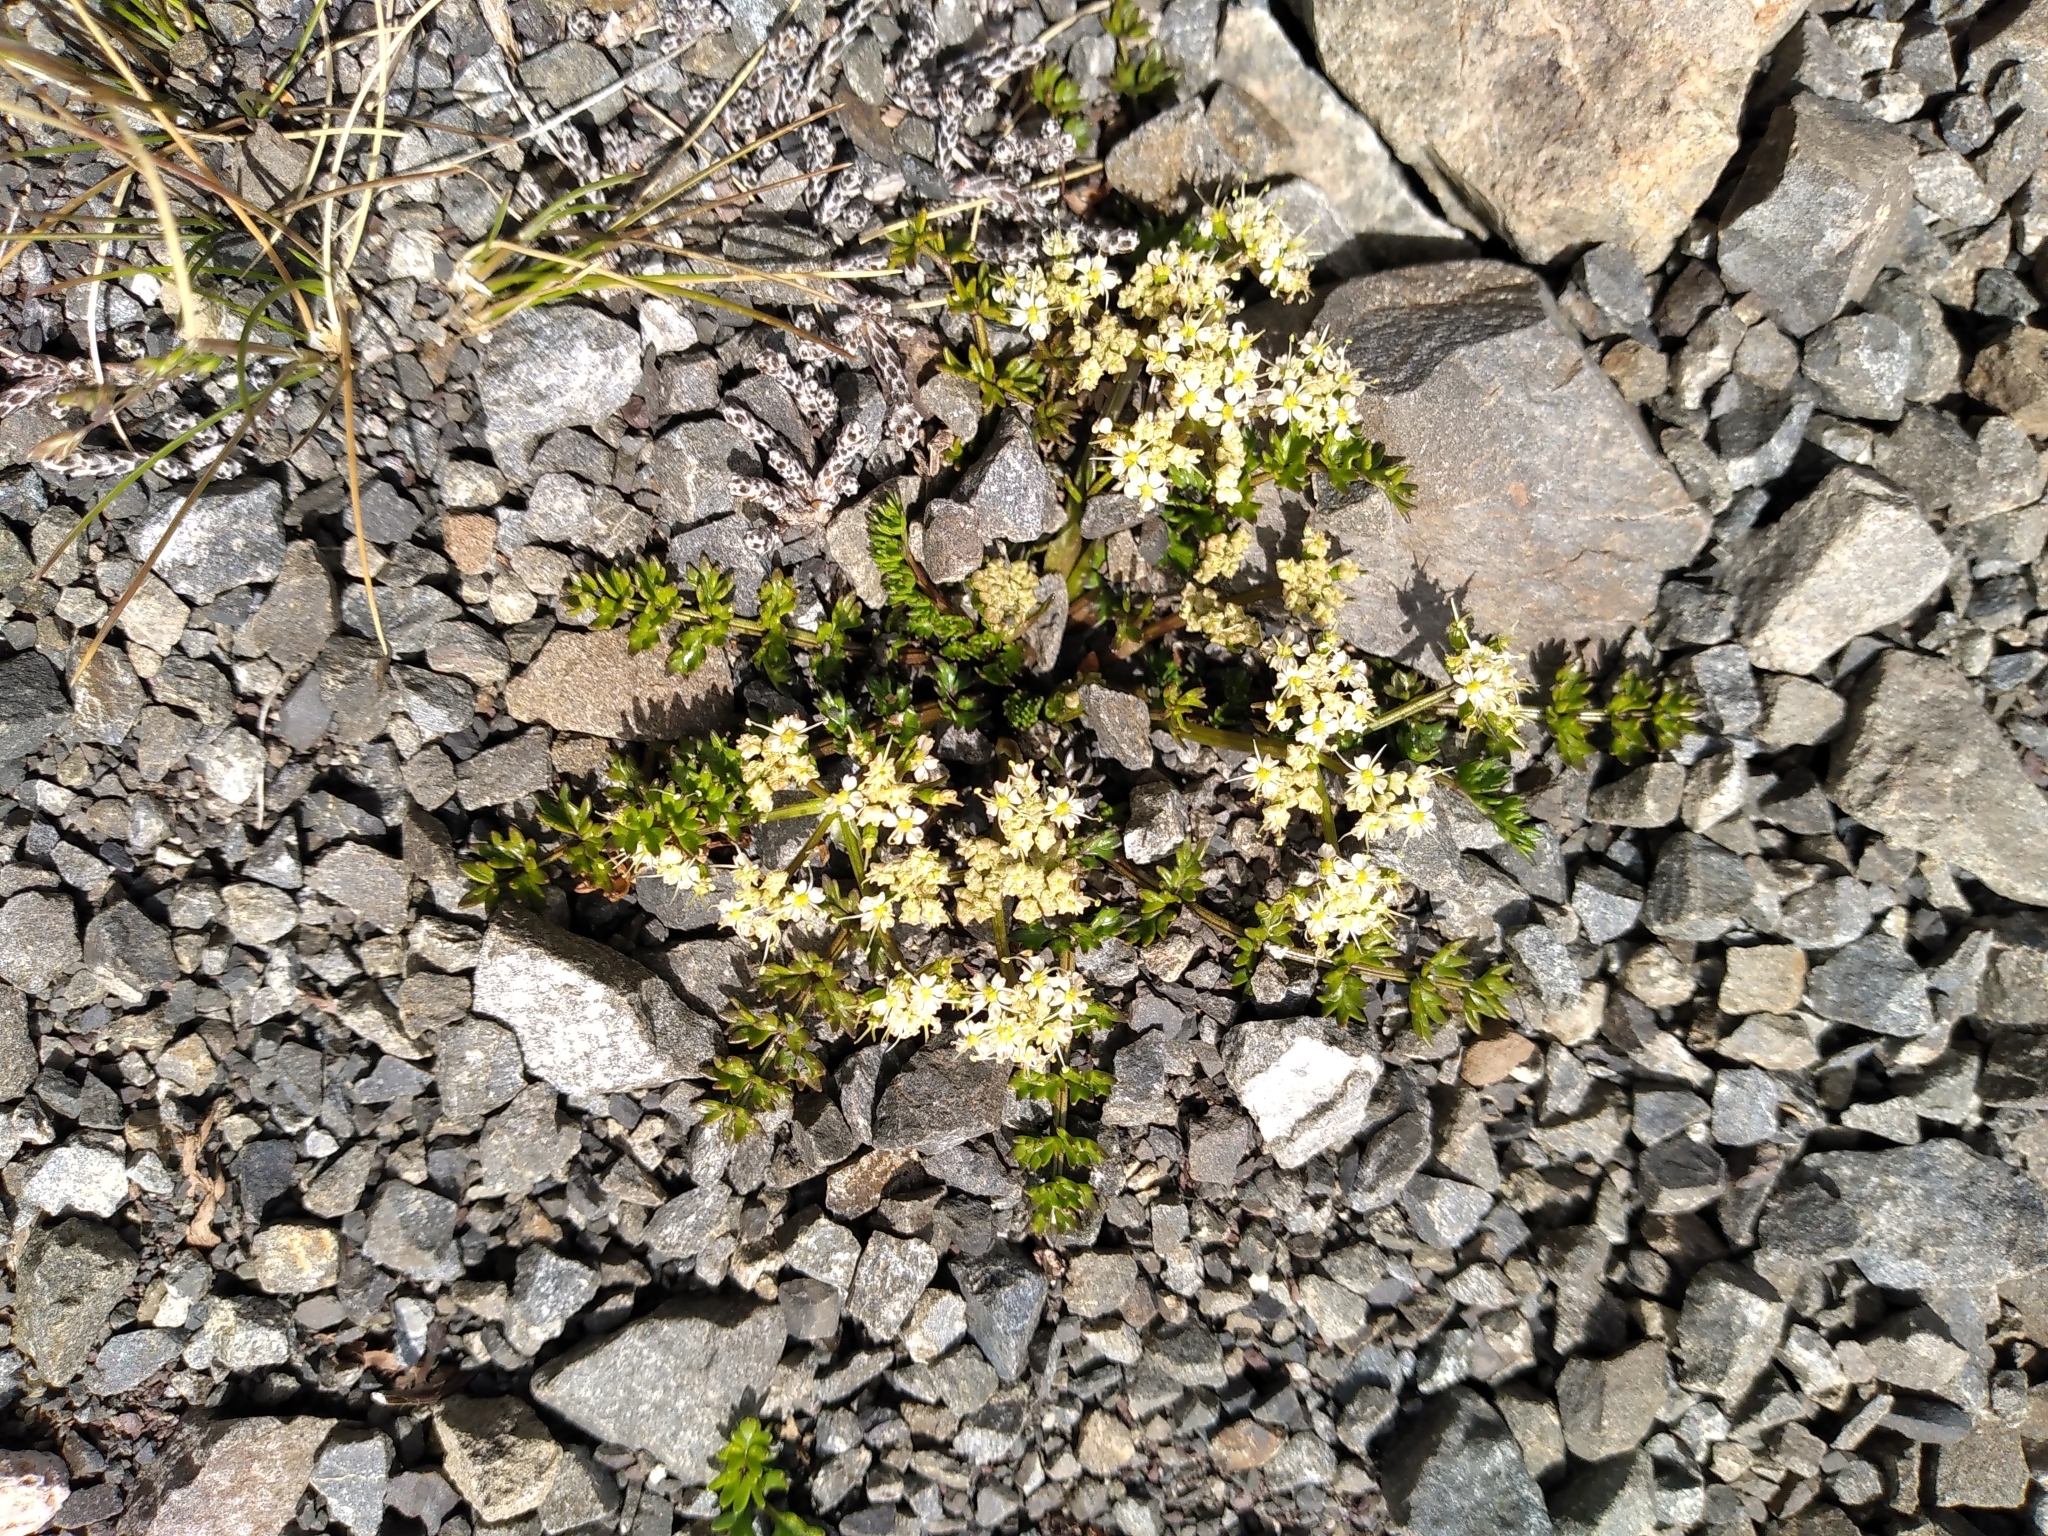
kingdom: Plantae
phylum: Tracheophyta
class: Magnoliopsida
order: Apiales
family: Apiaceae
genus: Gingidia
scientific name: Gingidia decipiens
